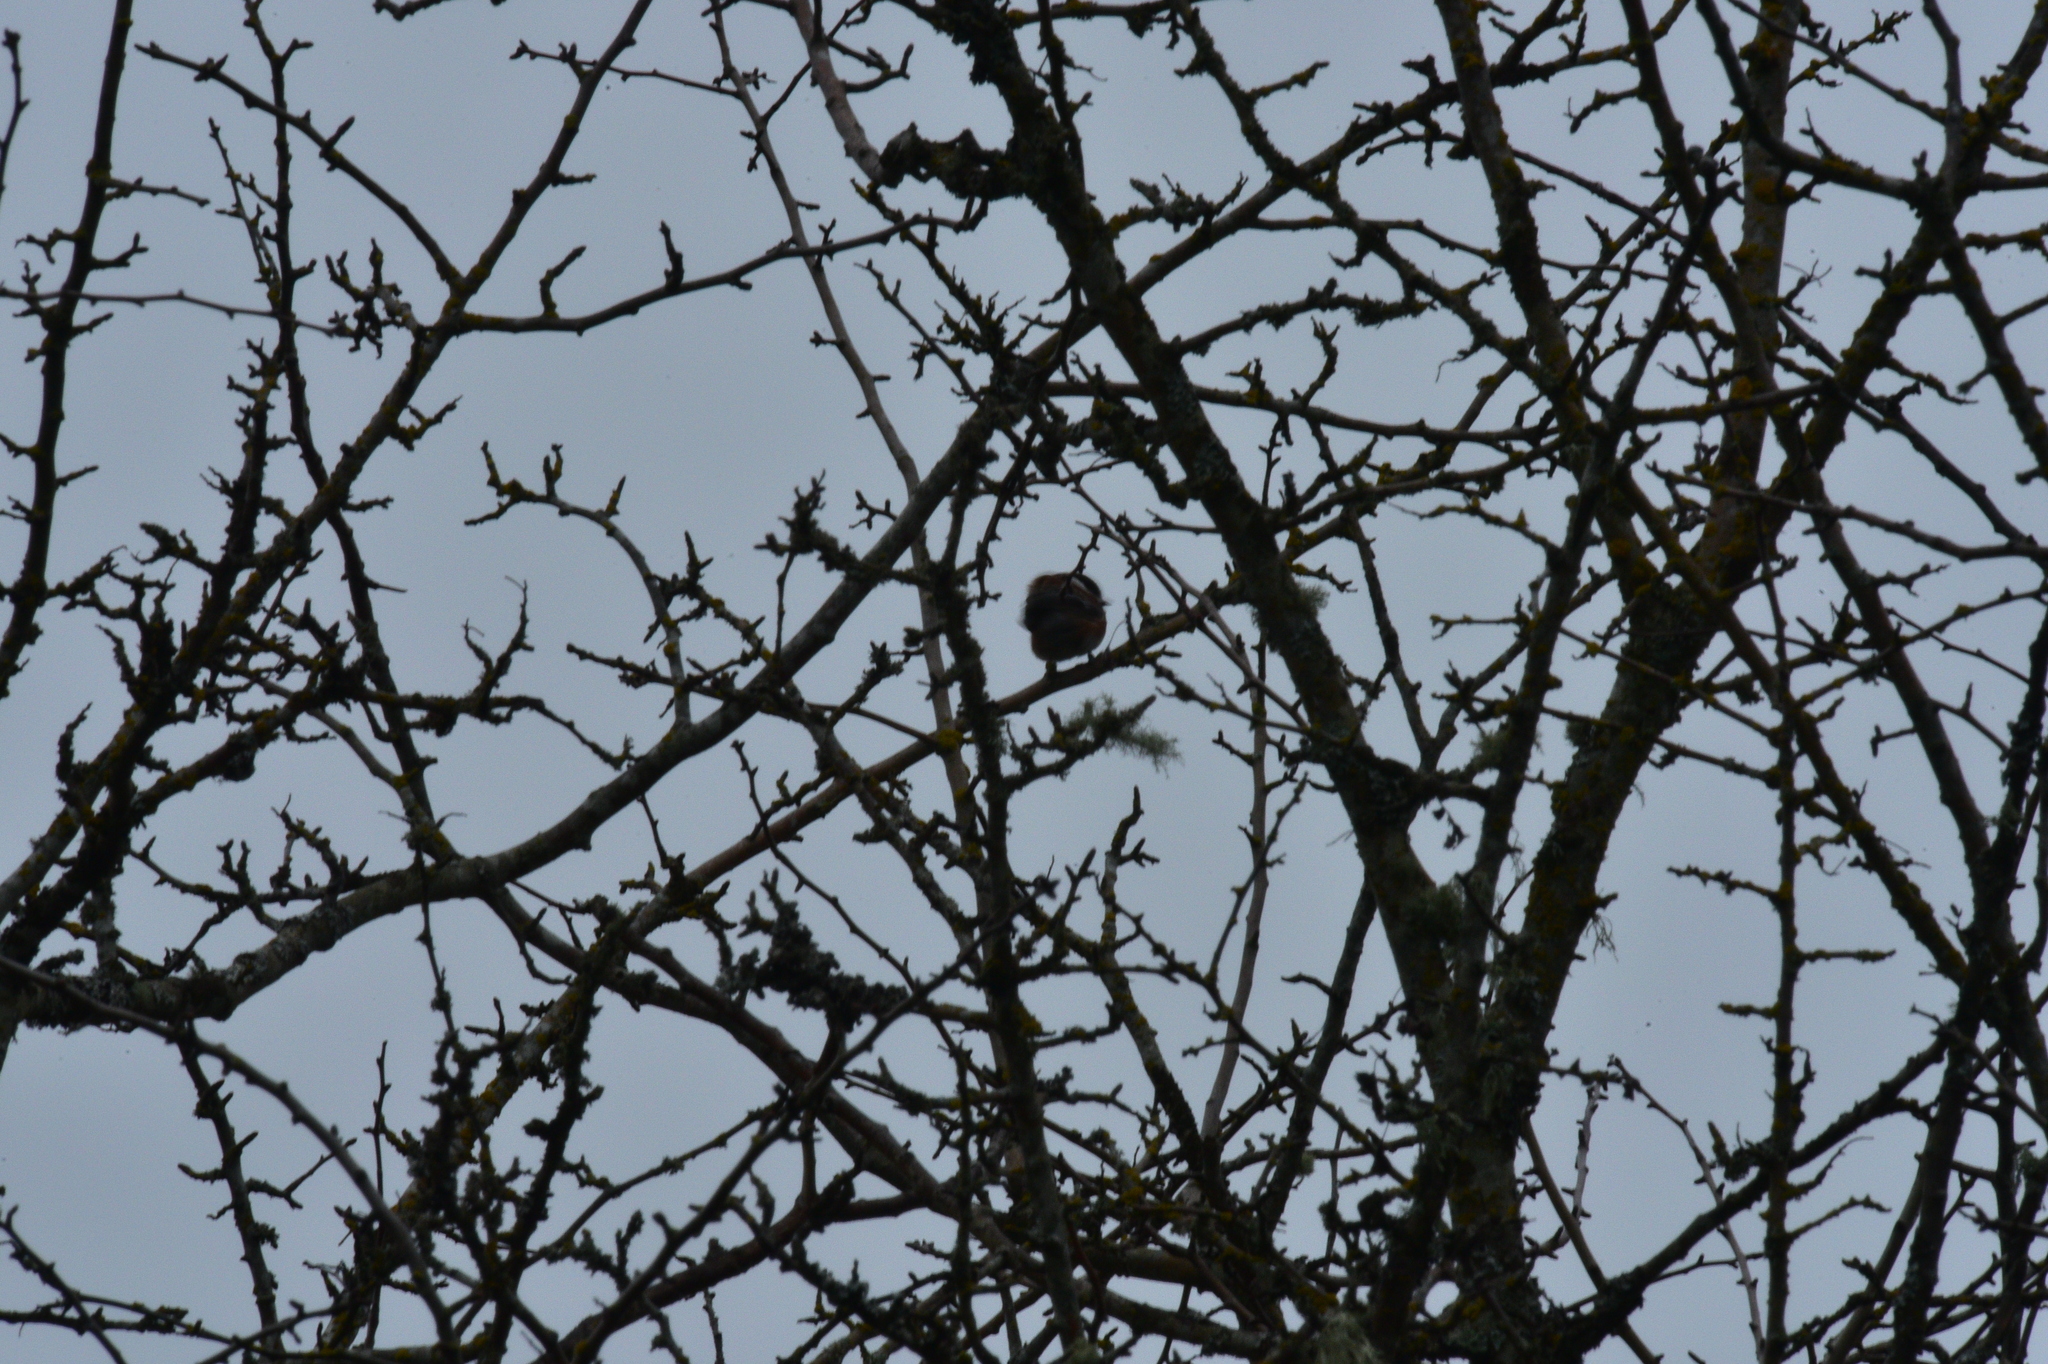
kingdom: Animalia
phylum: Chordata
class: Aves
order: Passeriformes
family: Paridae
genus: Poecile
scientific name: Poecile rufescens
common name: Chestnut-backed chickadee
